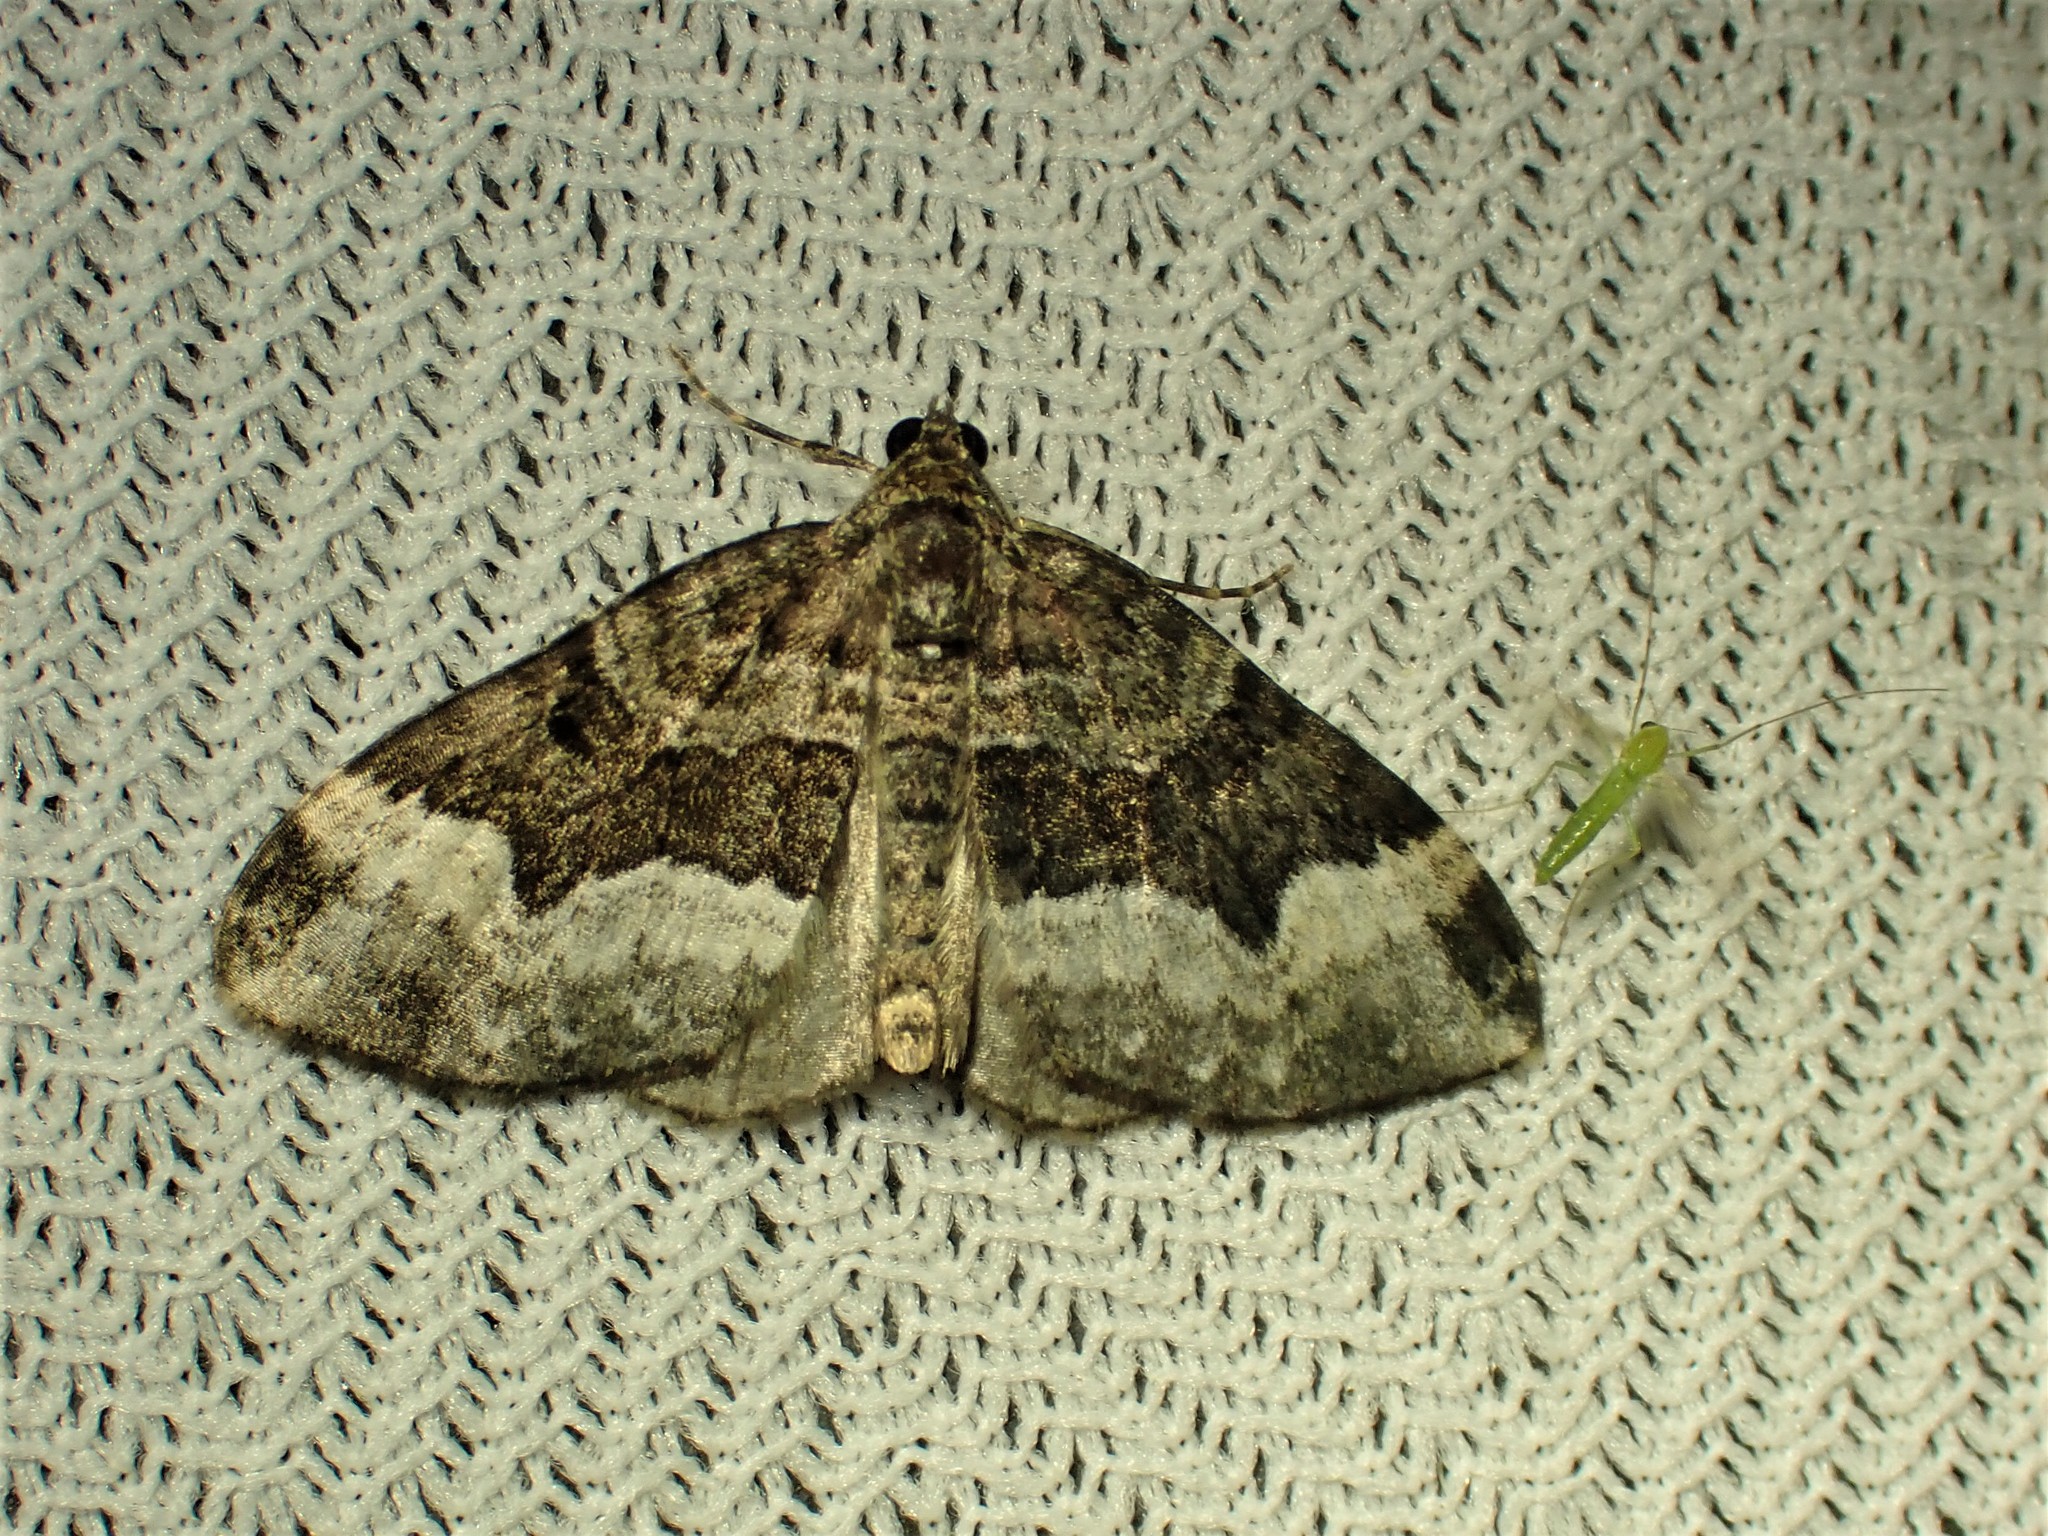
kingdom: Animalia
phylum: Arthropoda
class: Insecta
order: Lepidoptera
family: Geometridae
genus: Euphyia
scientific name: Euphyia intermediata
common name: Sharp-angled carpet
